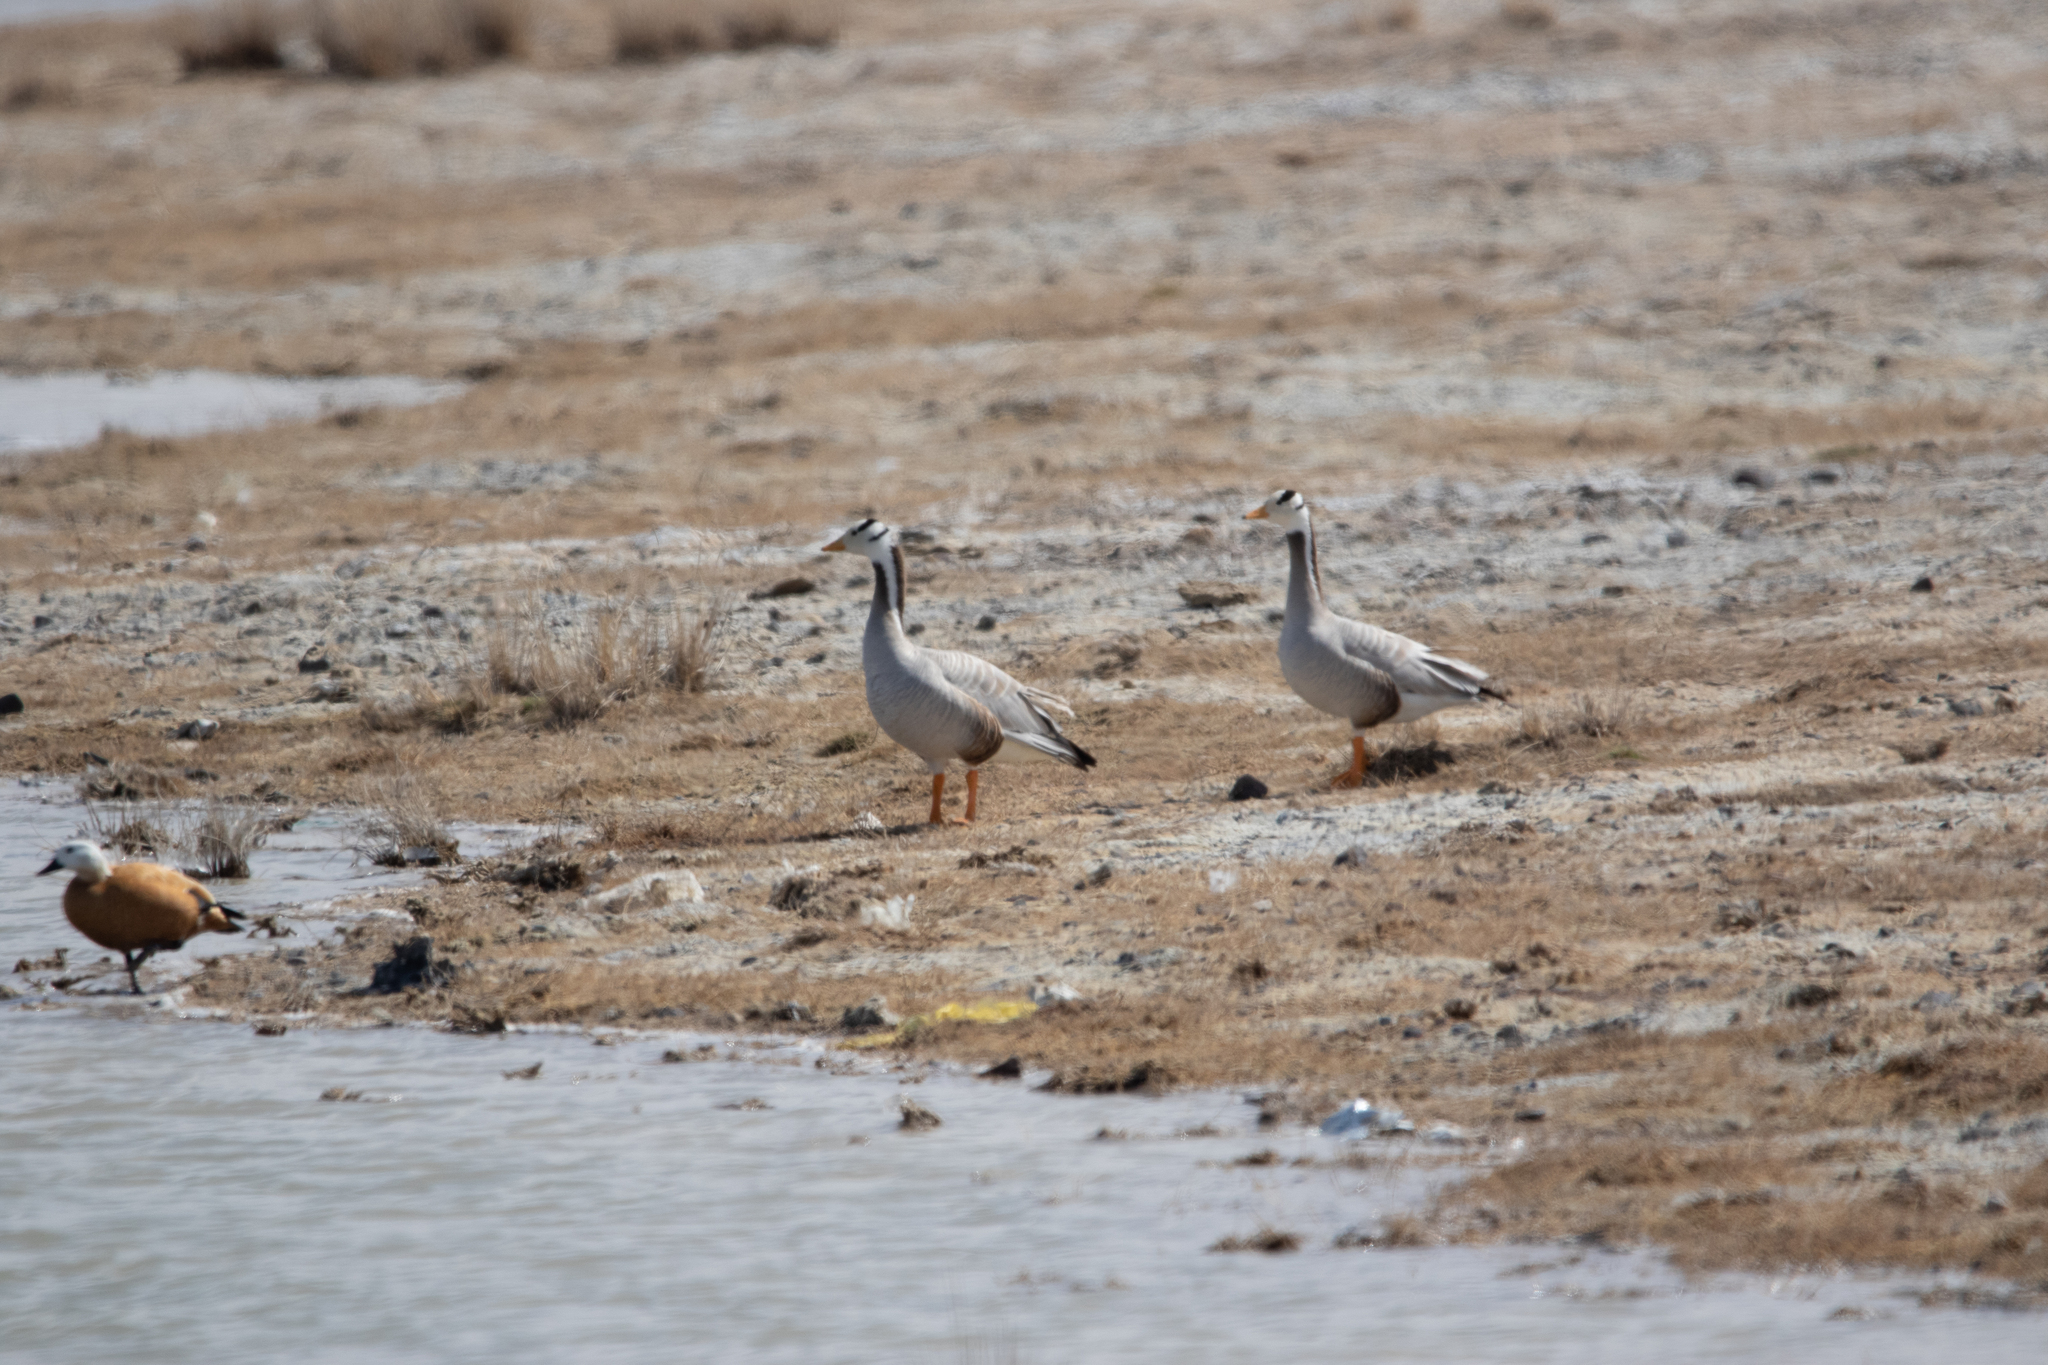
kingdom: Animalia
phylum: Chordata
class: Aves
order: Anseriformes
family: Anatidae
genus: Anser
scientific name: Anser indicus
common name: Bar-headed goose
